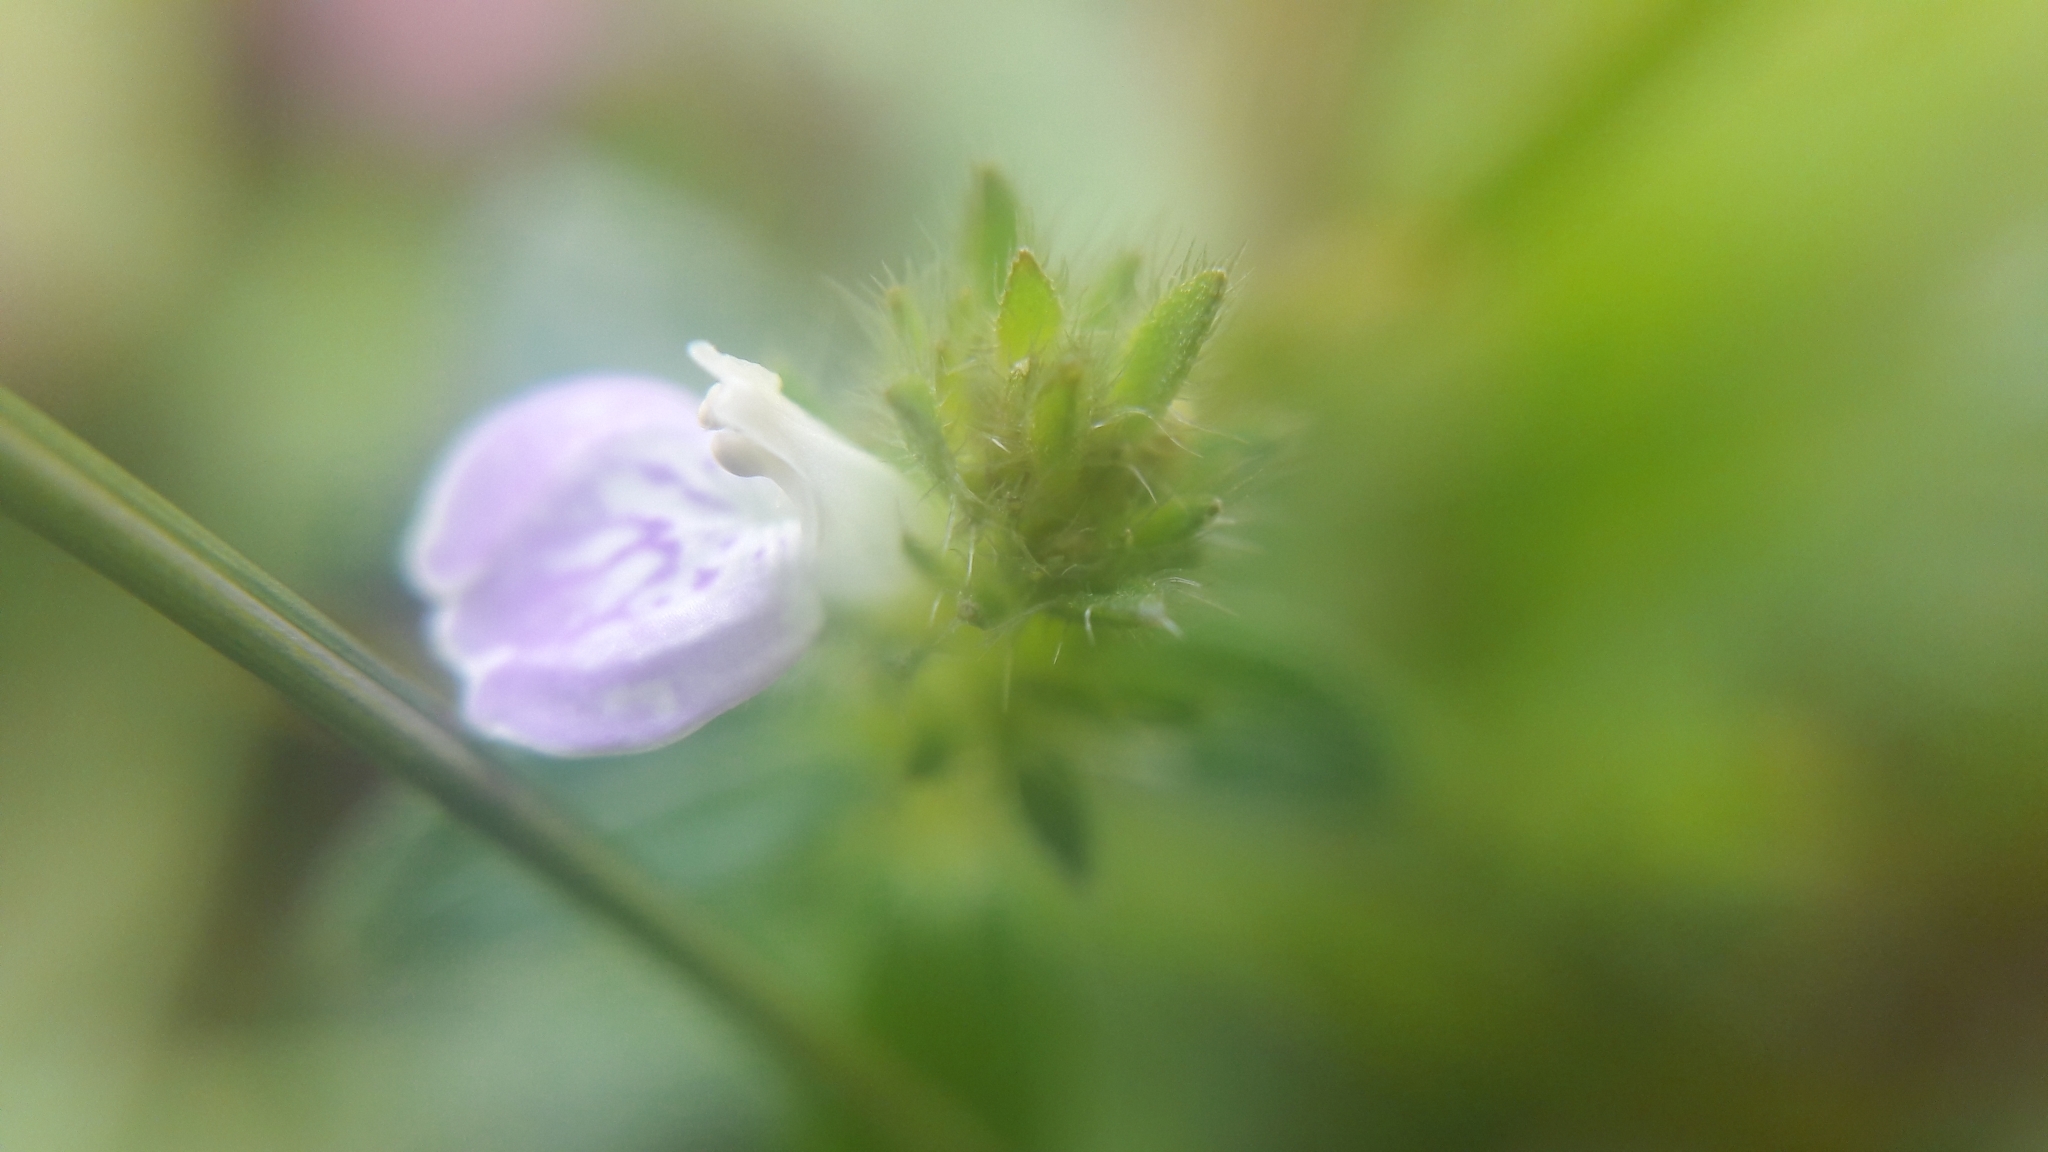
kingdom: Plantae
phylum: Tracheophyta
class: Magnoliopsida
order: Lamiales
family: Acanthaceae
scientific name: Acanthaceae
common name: Acanthaceae
